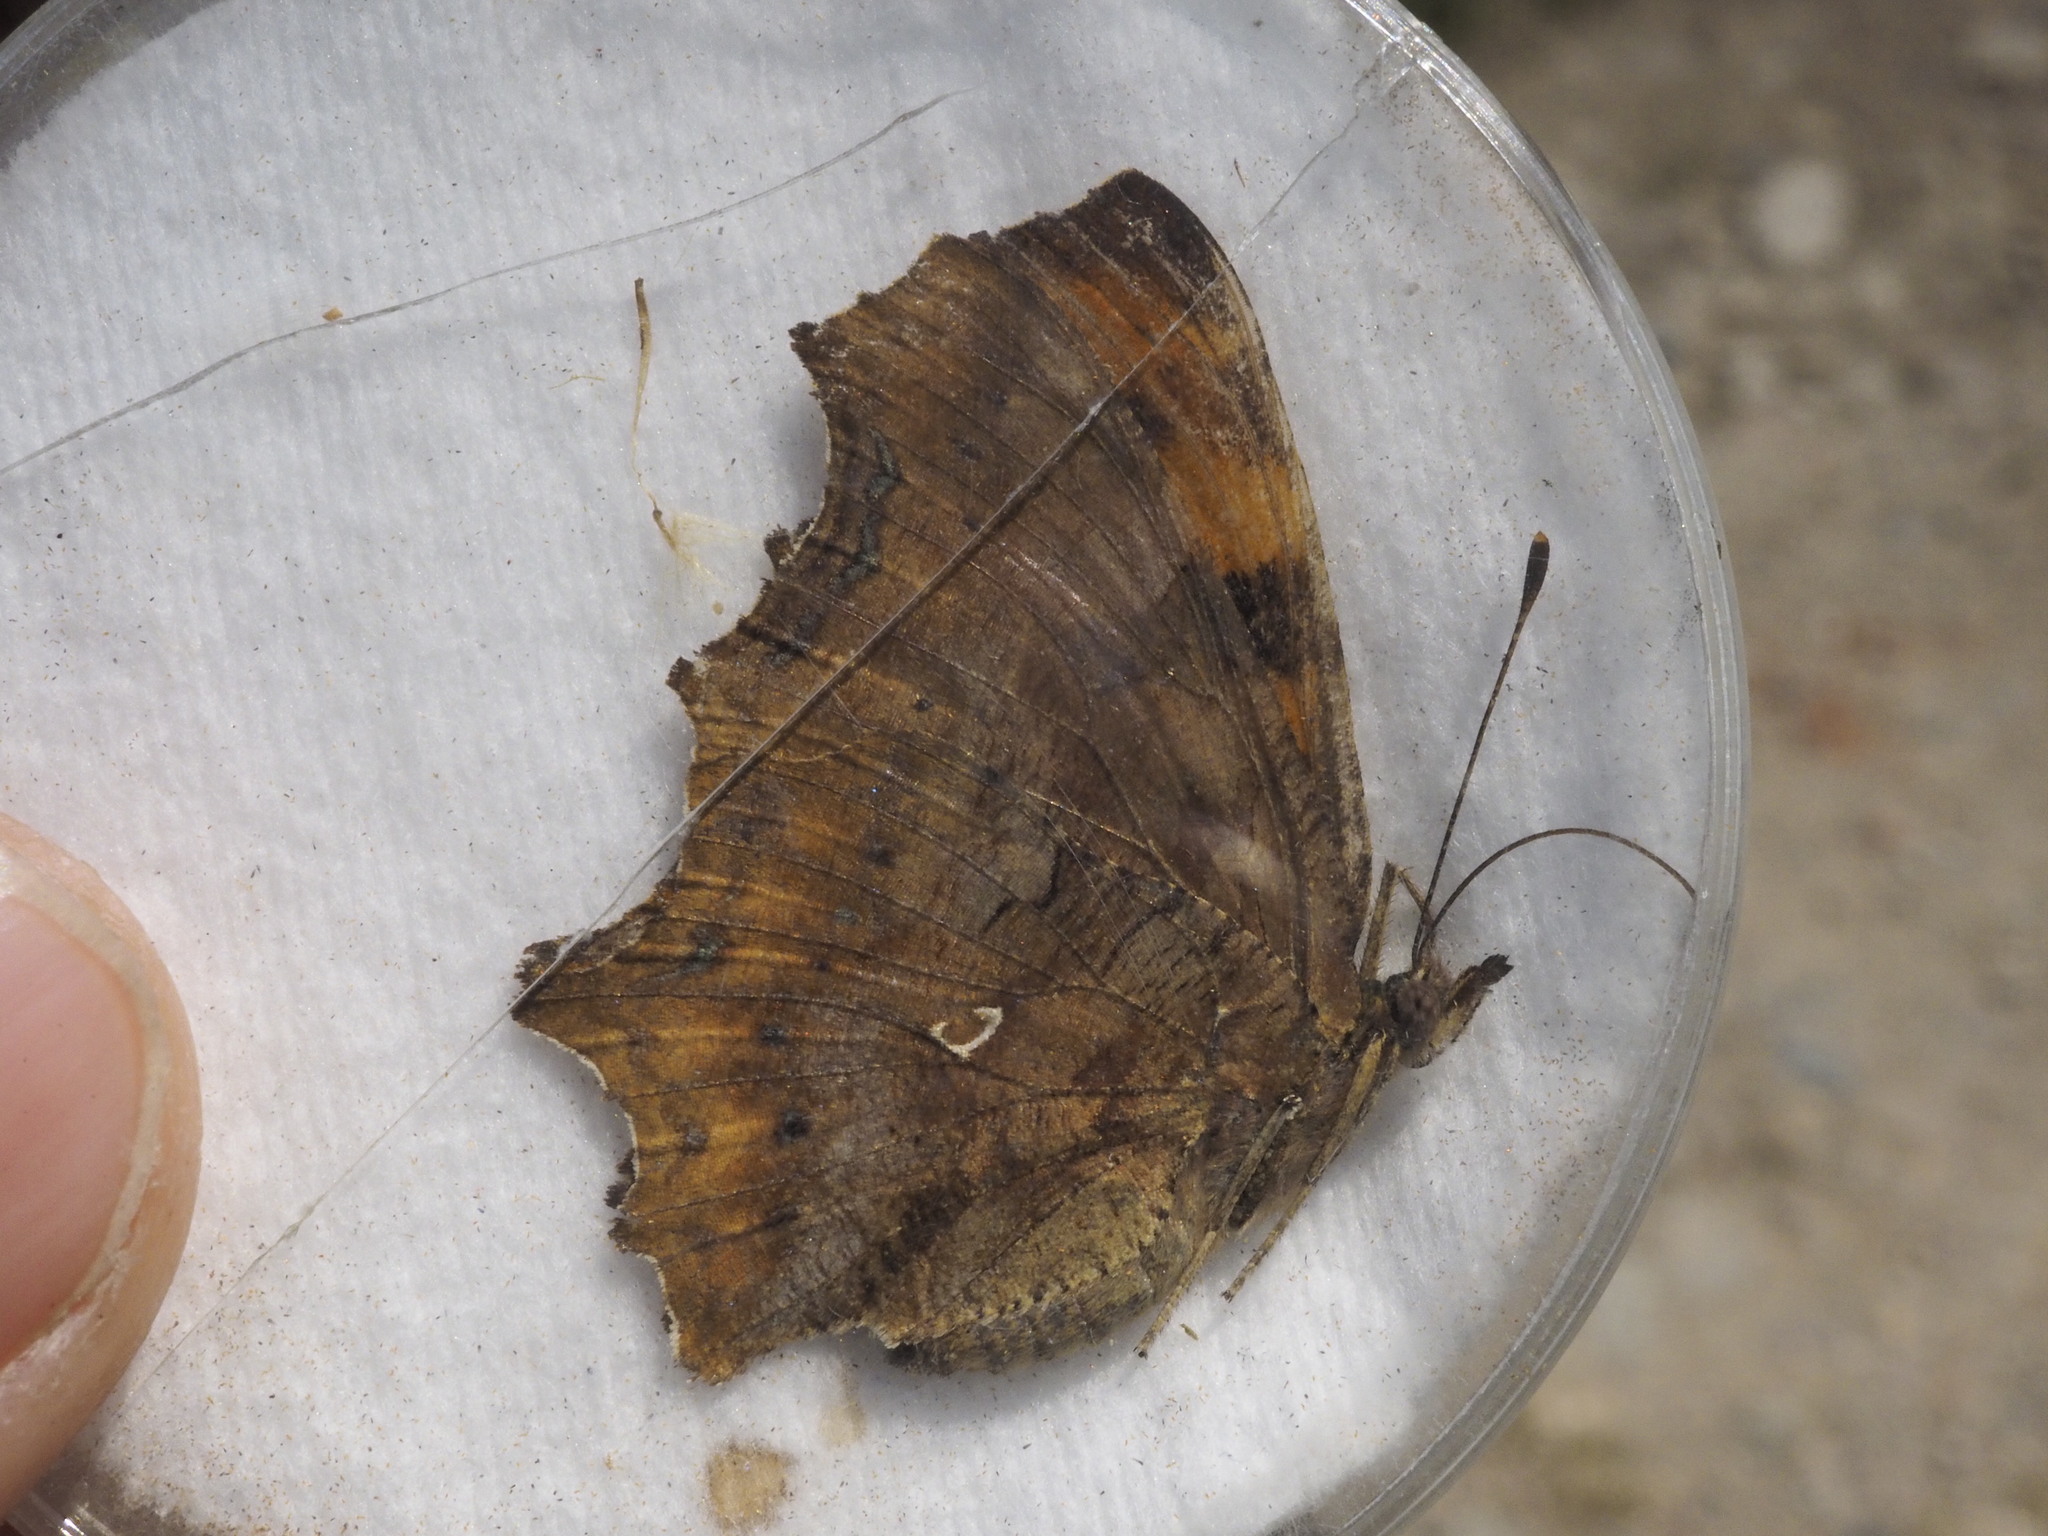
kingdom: Animalia
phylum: Arthropoda
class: Insecta
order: Lepidoptera
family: Nymphalidae
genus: Polygonia
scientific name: Polygonia c-album
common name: Comma
